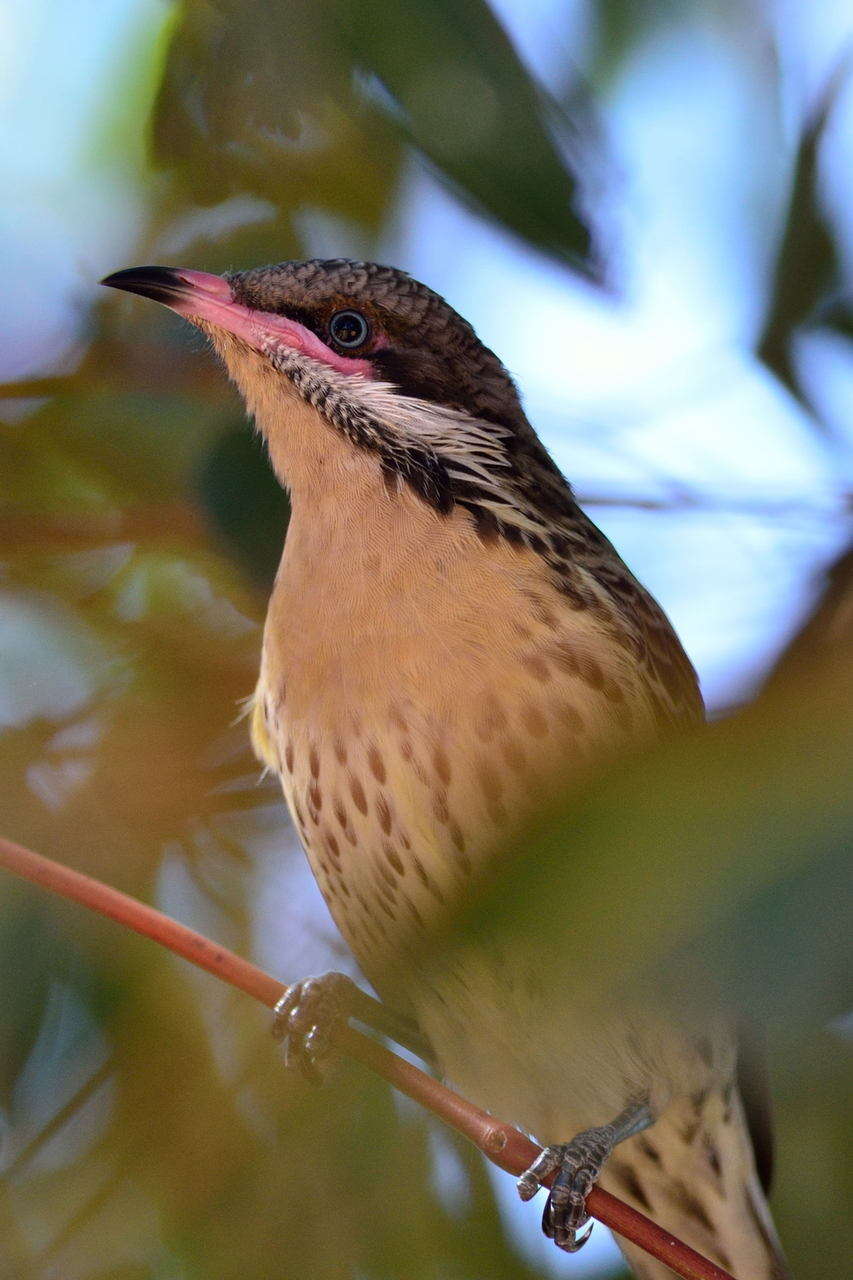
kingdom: Animalia
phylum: Chordata
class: Aves
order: Passeriformes
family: Meliphagidae
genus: Acanthagenys
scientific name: Acanthagenys rufogularis
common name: Spiny-cheeked honeyeater
